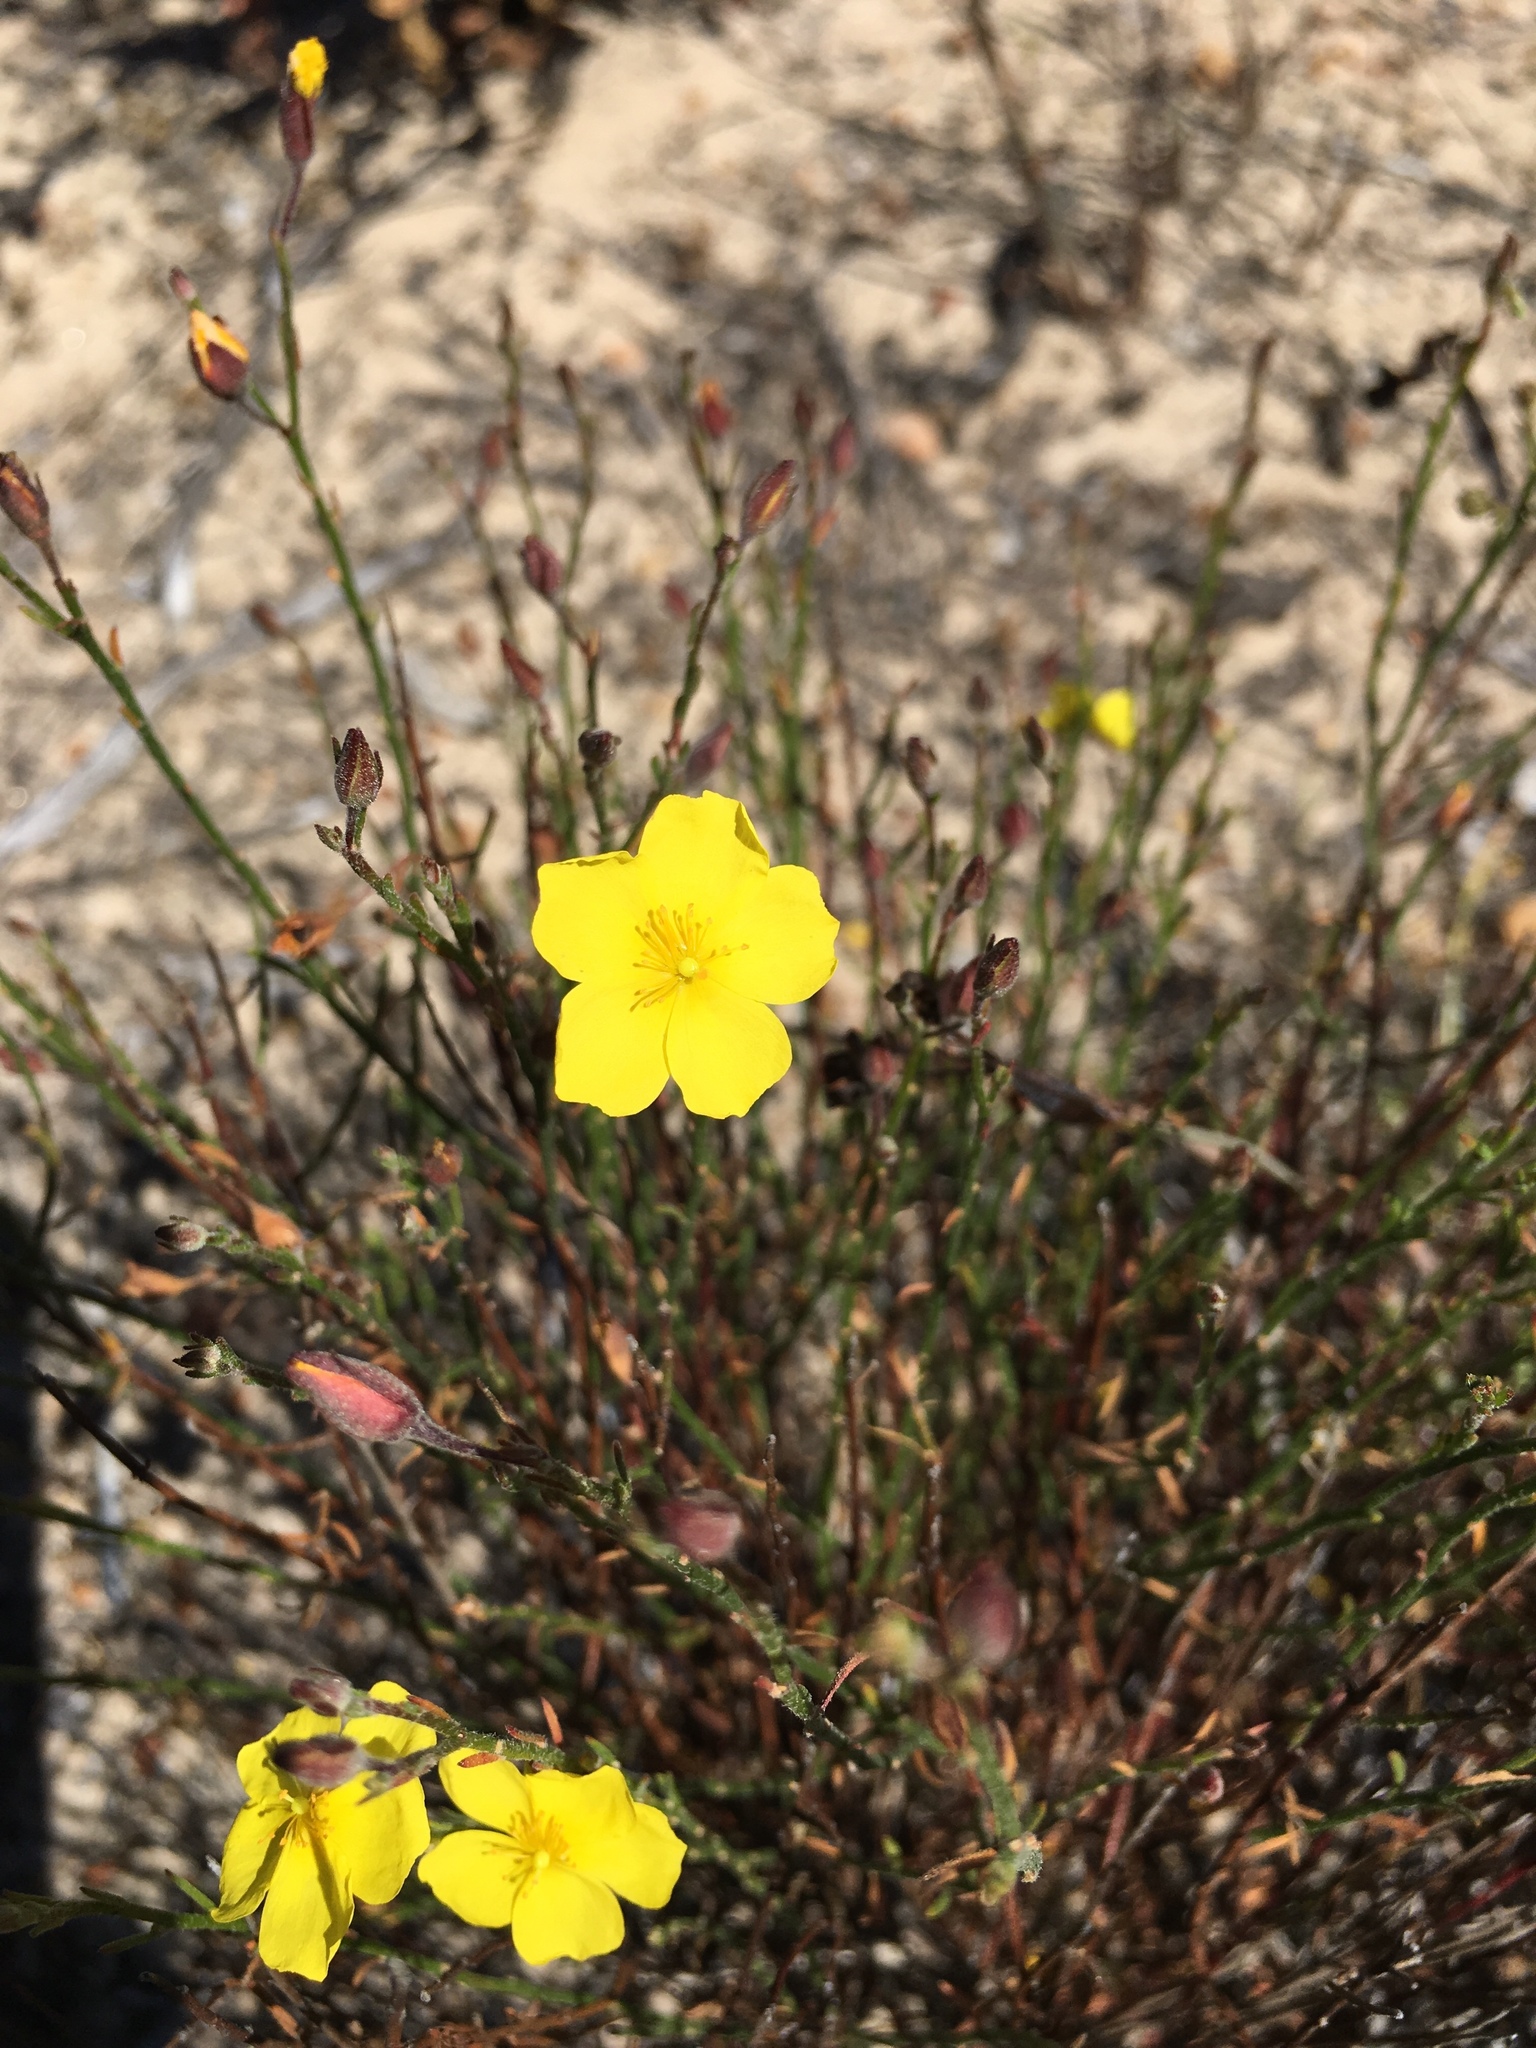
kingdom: Plantae
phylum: Tracheophyta
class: Magnoliopsida
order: Malvales
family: Cistaceae
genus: Crocanthemum
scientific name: Crocanthemum scoparium
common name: Broom-rose
